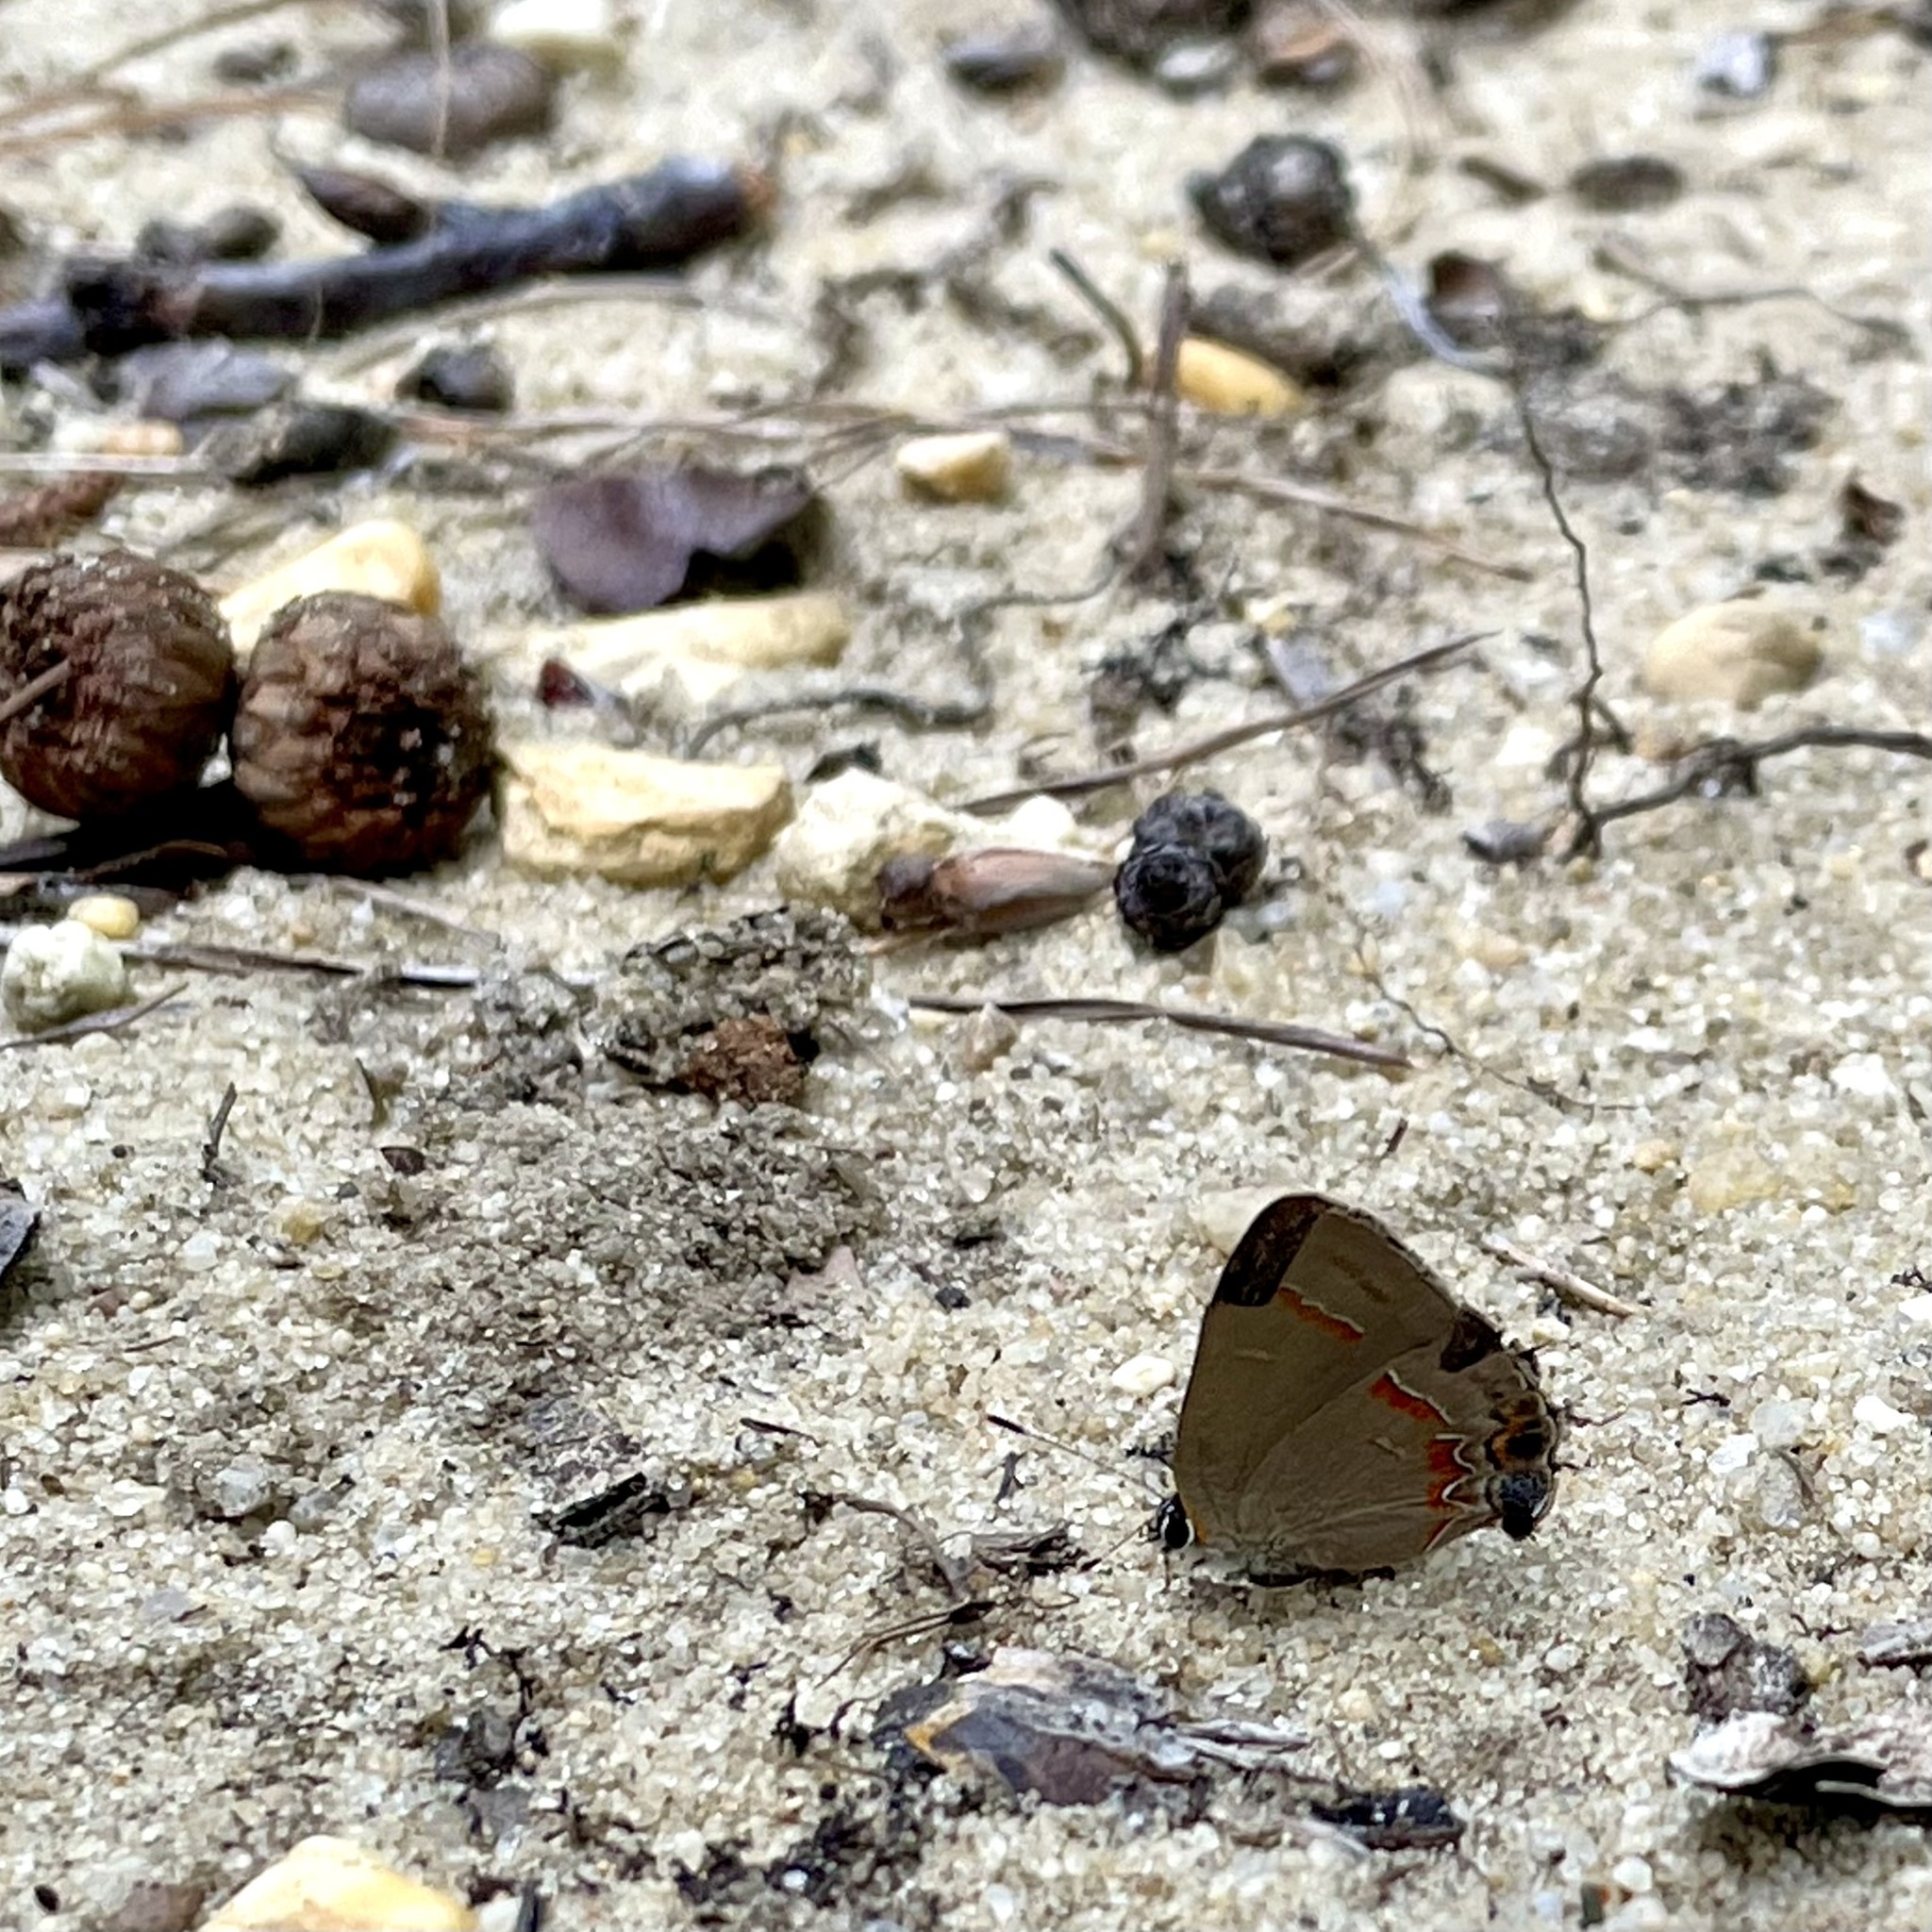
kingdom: Animalia
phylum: Arthropoda
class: Insecta
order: Lepidoptera
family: Lycaenidae
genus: Calycopis
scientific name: Calycopis cecrops
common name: Red-banded hairstreak
